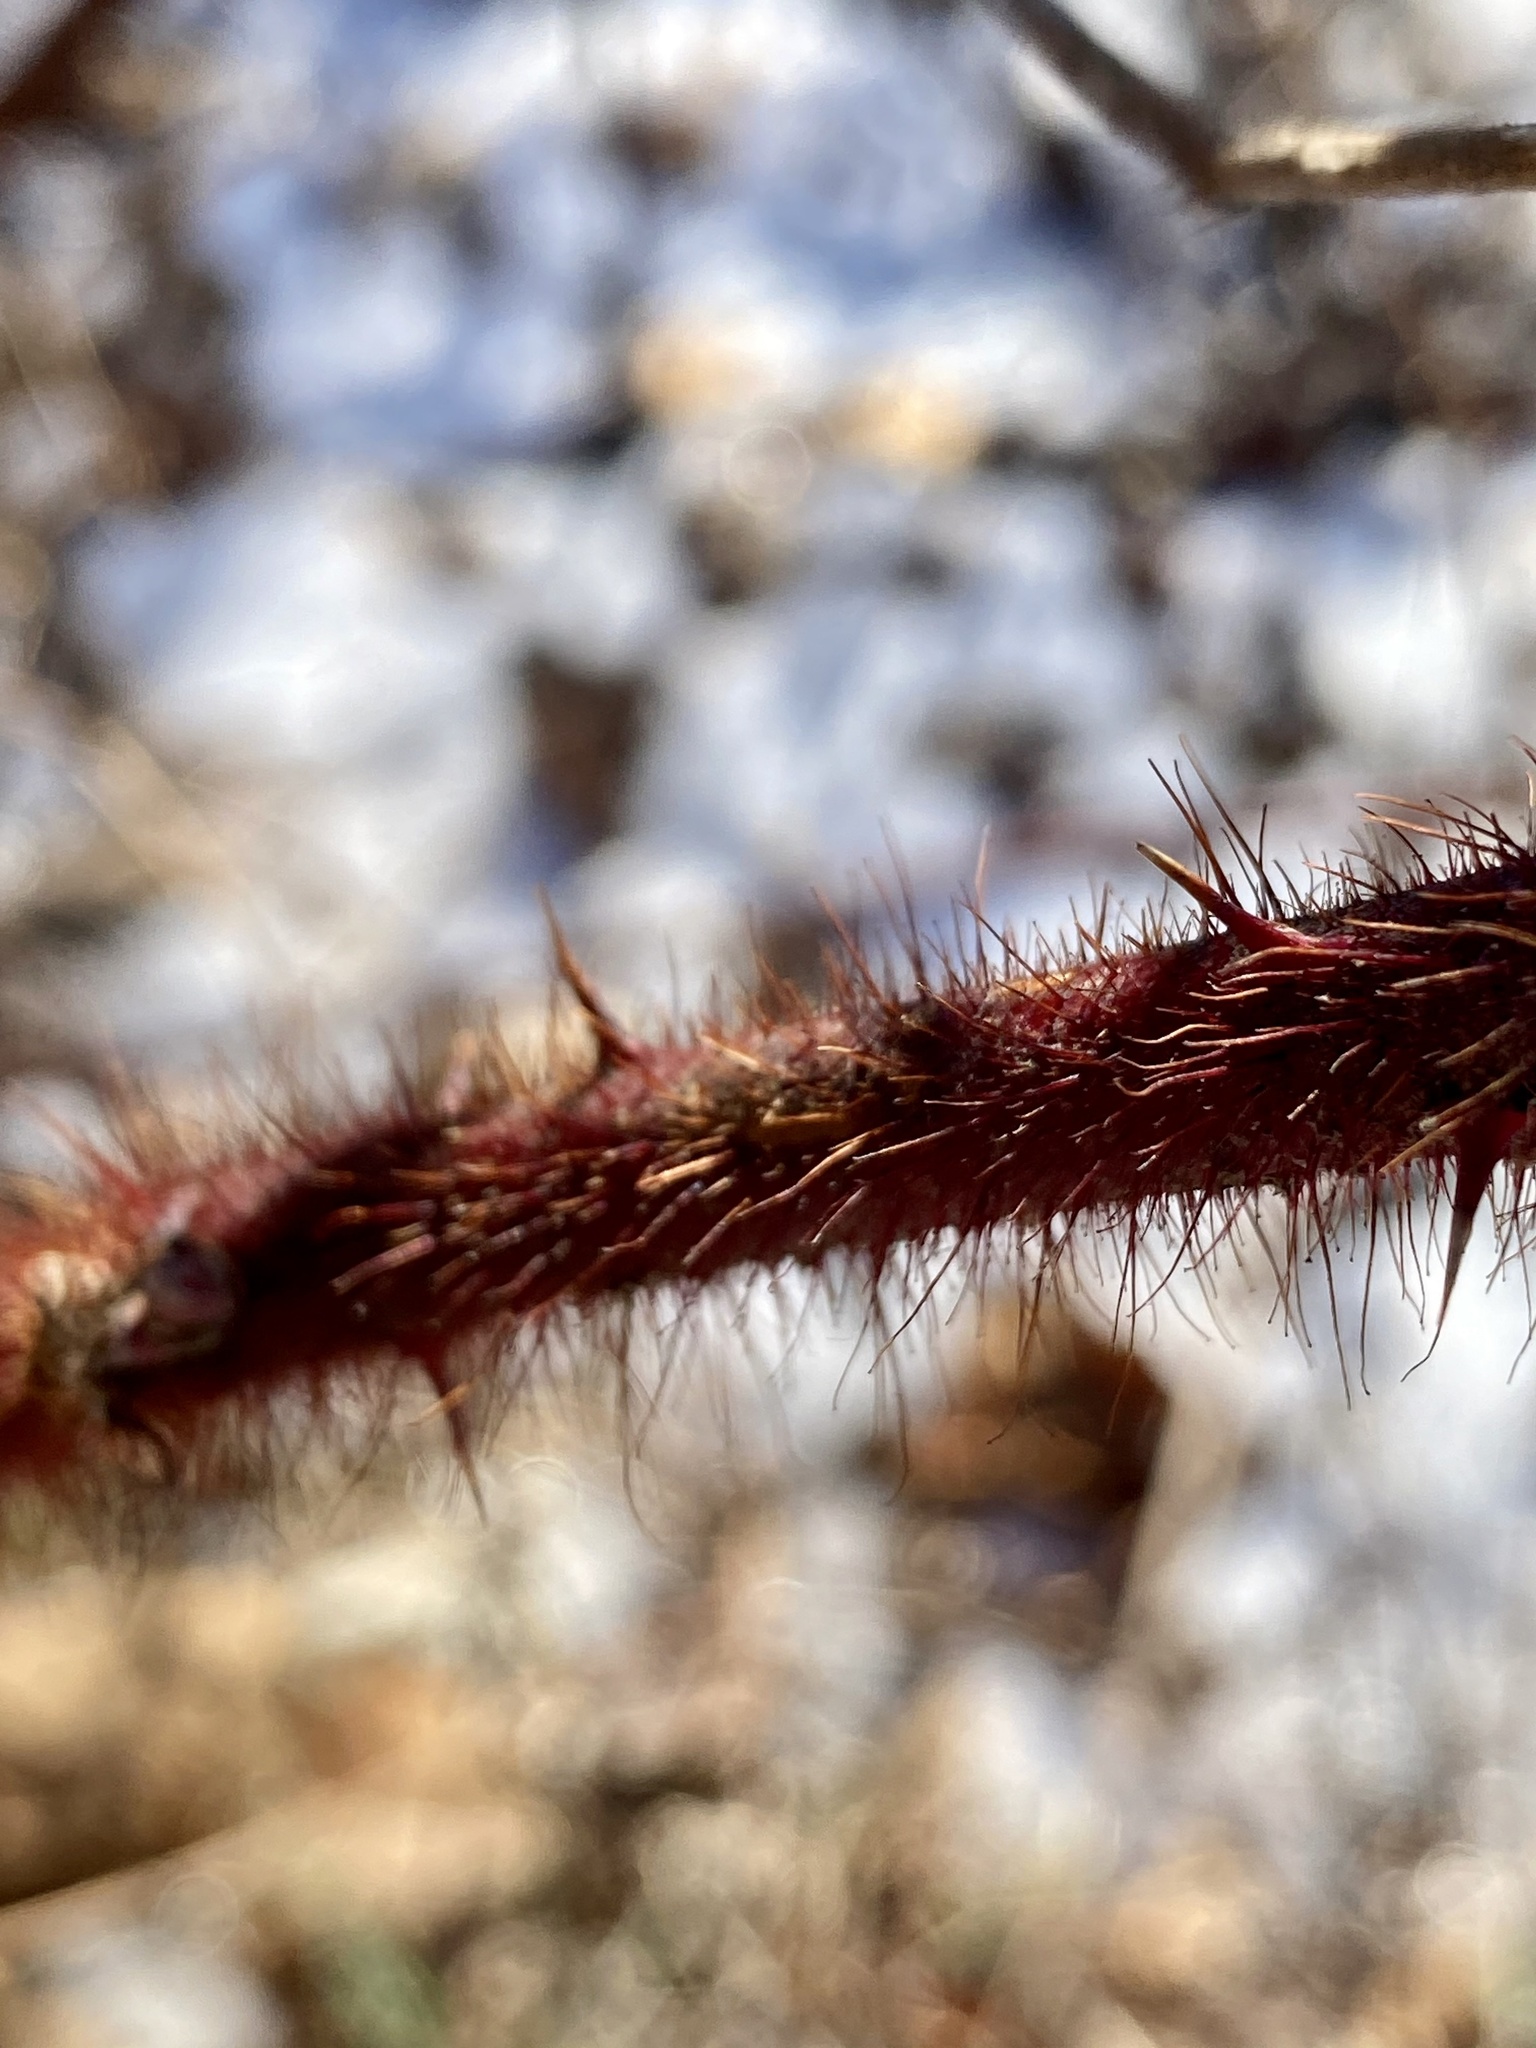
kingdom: Plantae
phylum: Tracheophyta
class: Magnoliopsida
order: Rosales
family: Rosaceae
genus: Rubus
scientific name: Rubus phoenicolasius
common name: Japanese wineberry
